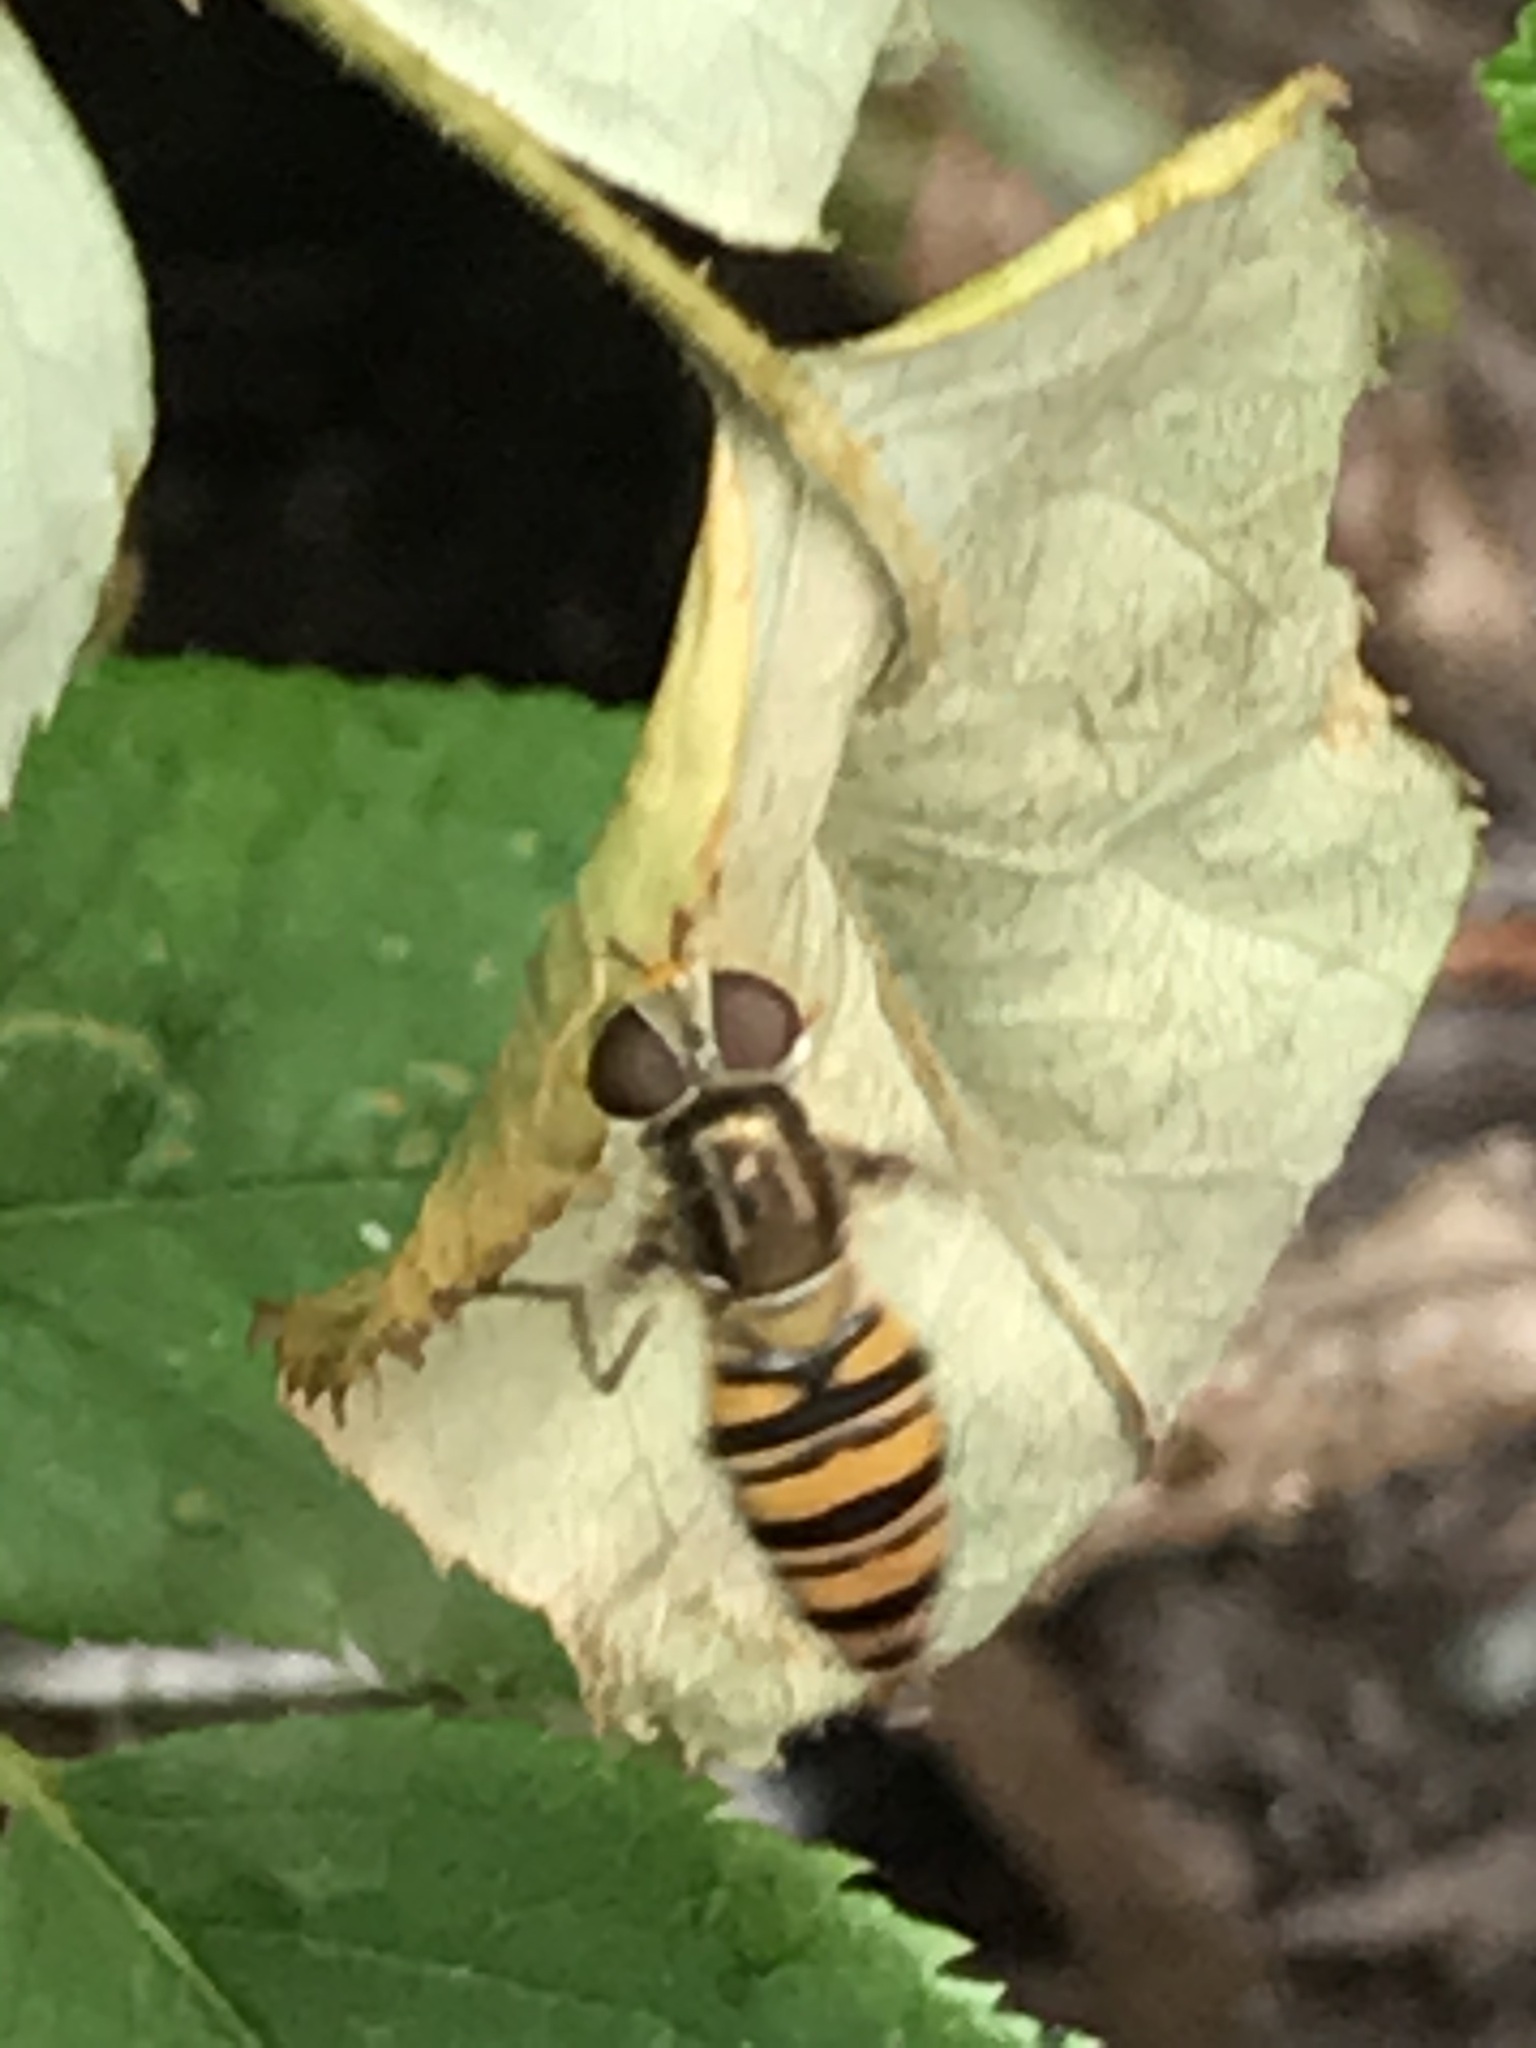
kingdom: Animalia
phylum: Arthropoda
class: Insecta
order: Diptera
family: Syrphidae
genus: Episyrphus
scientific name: Episyrphus balteatus
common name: Marmalade hoverfly
